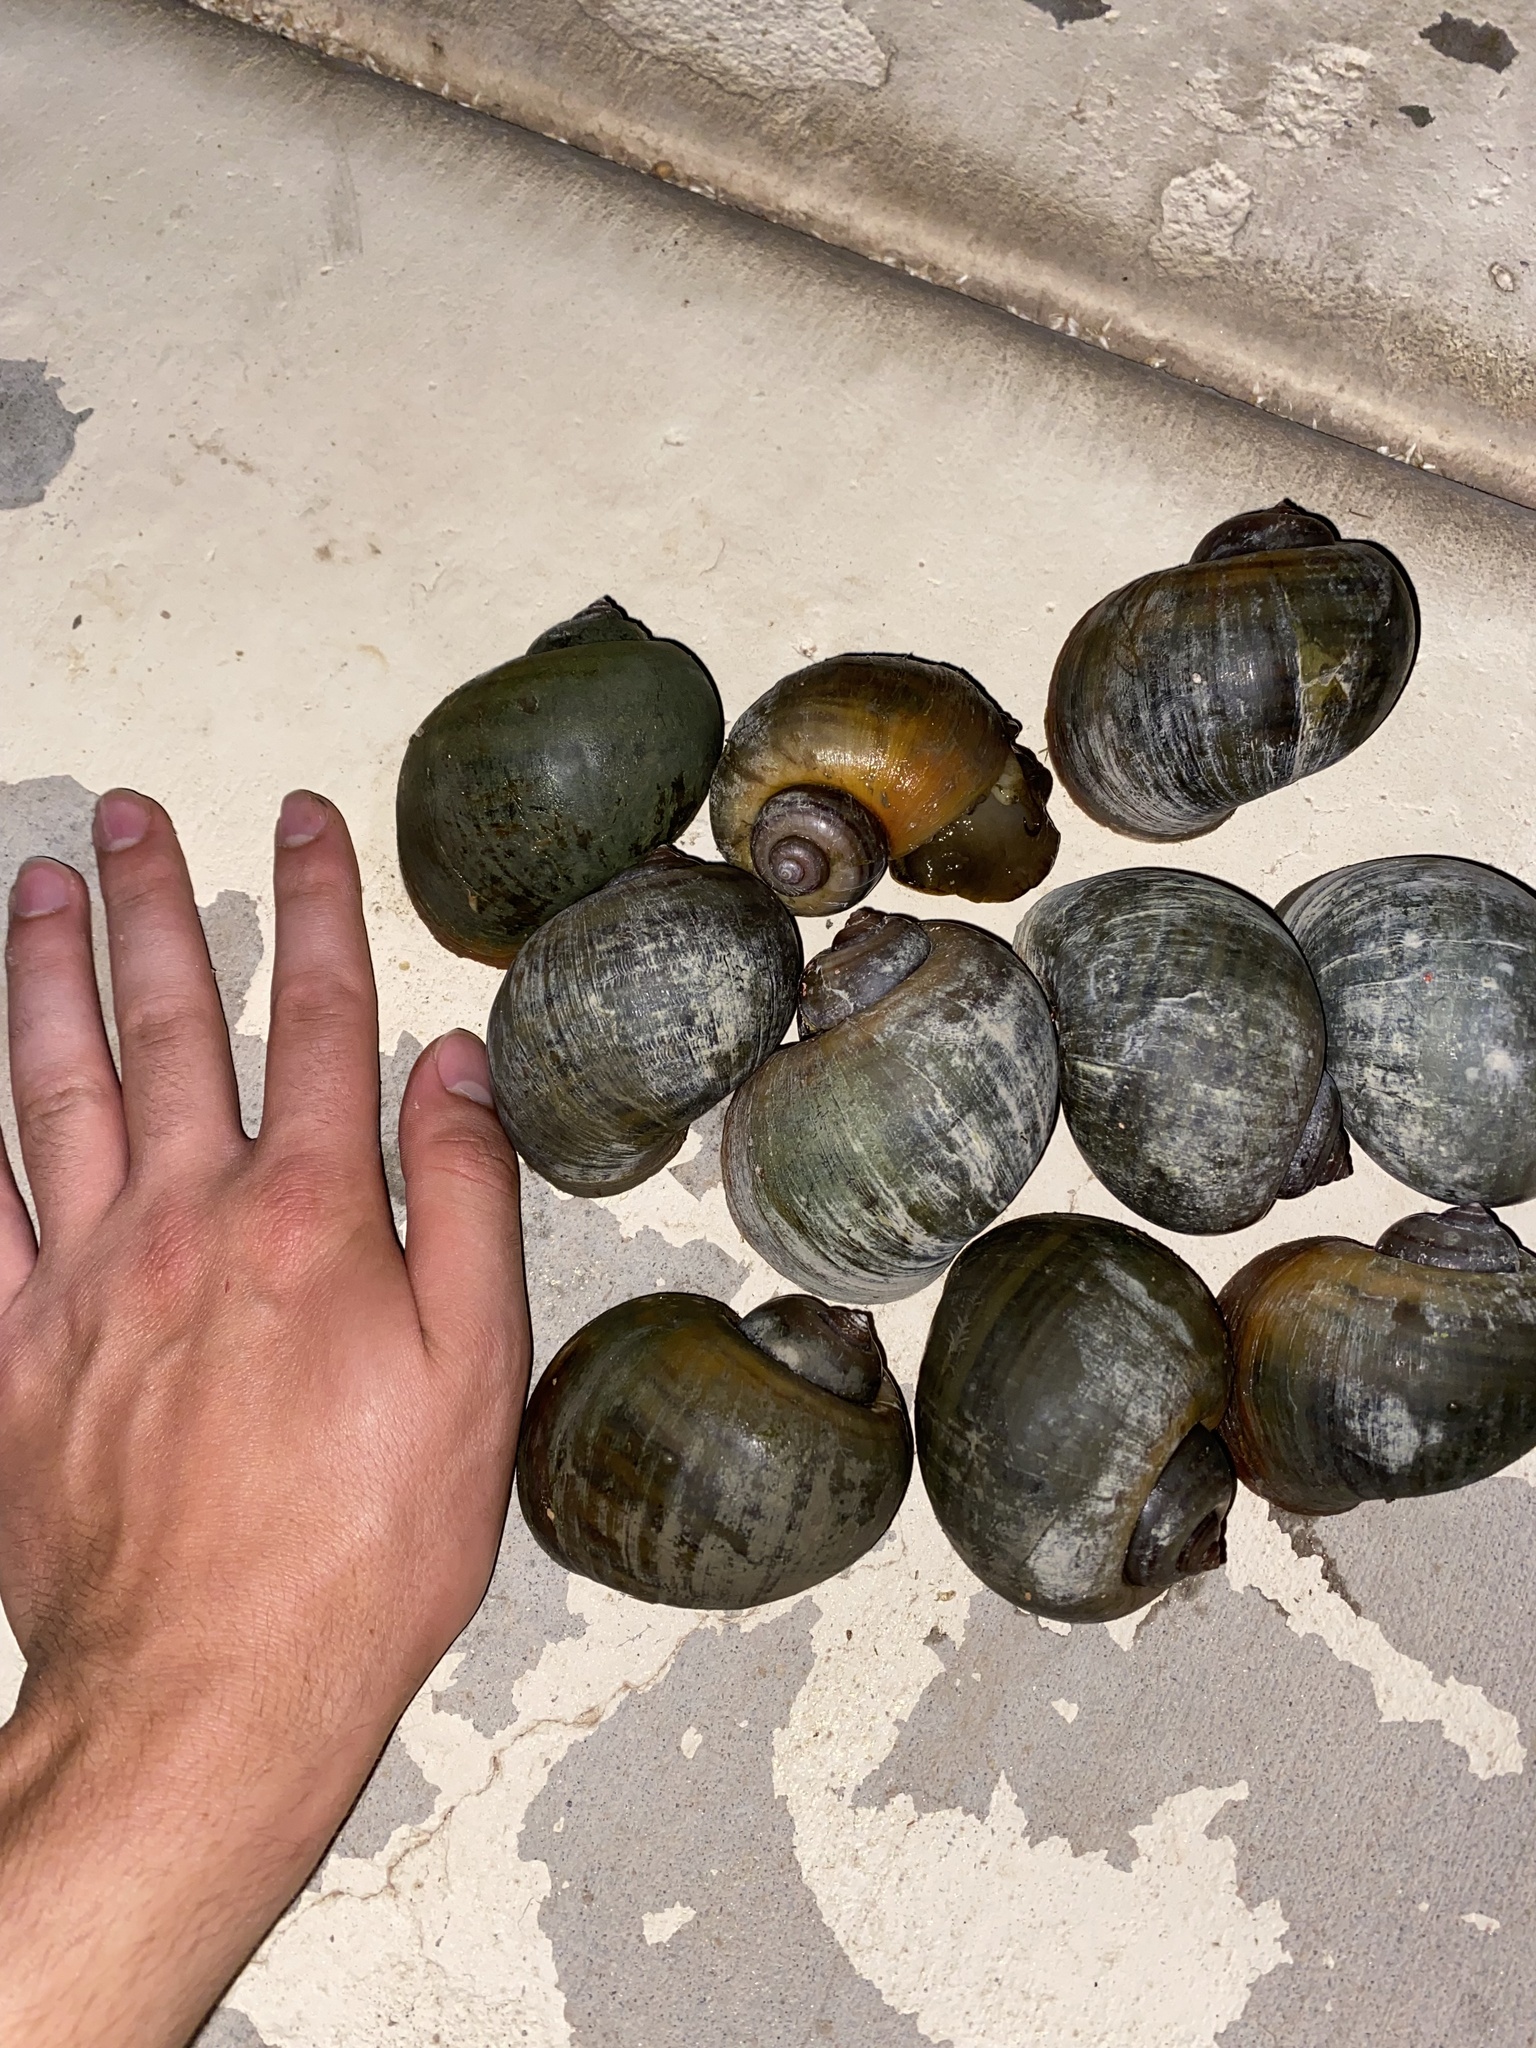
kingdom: Animalia
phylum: Mollusca
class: Gastropoda
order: Architaenioglossa
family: Ampullariidae
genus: Pomacea
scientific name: Pomacea maculata
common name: Giant applesnail
